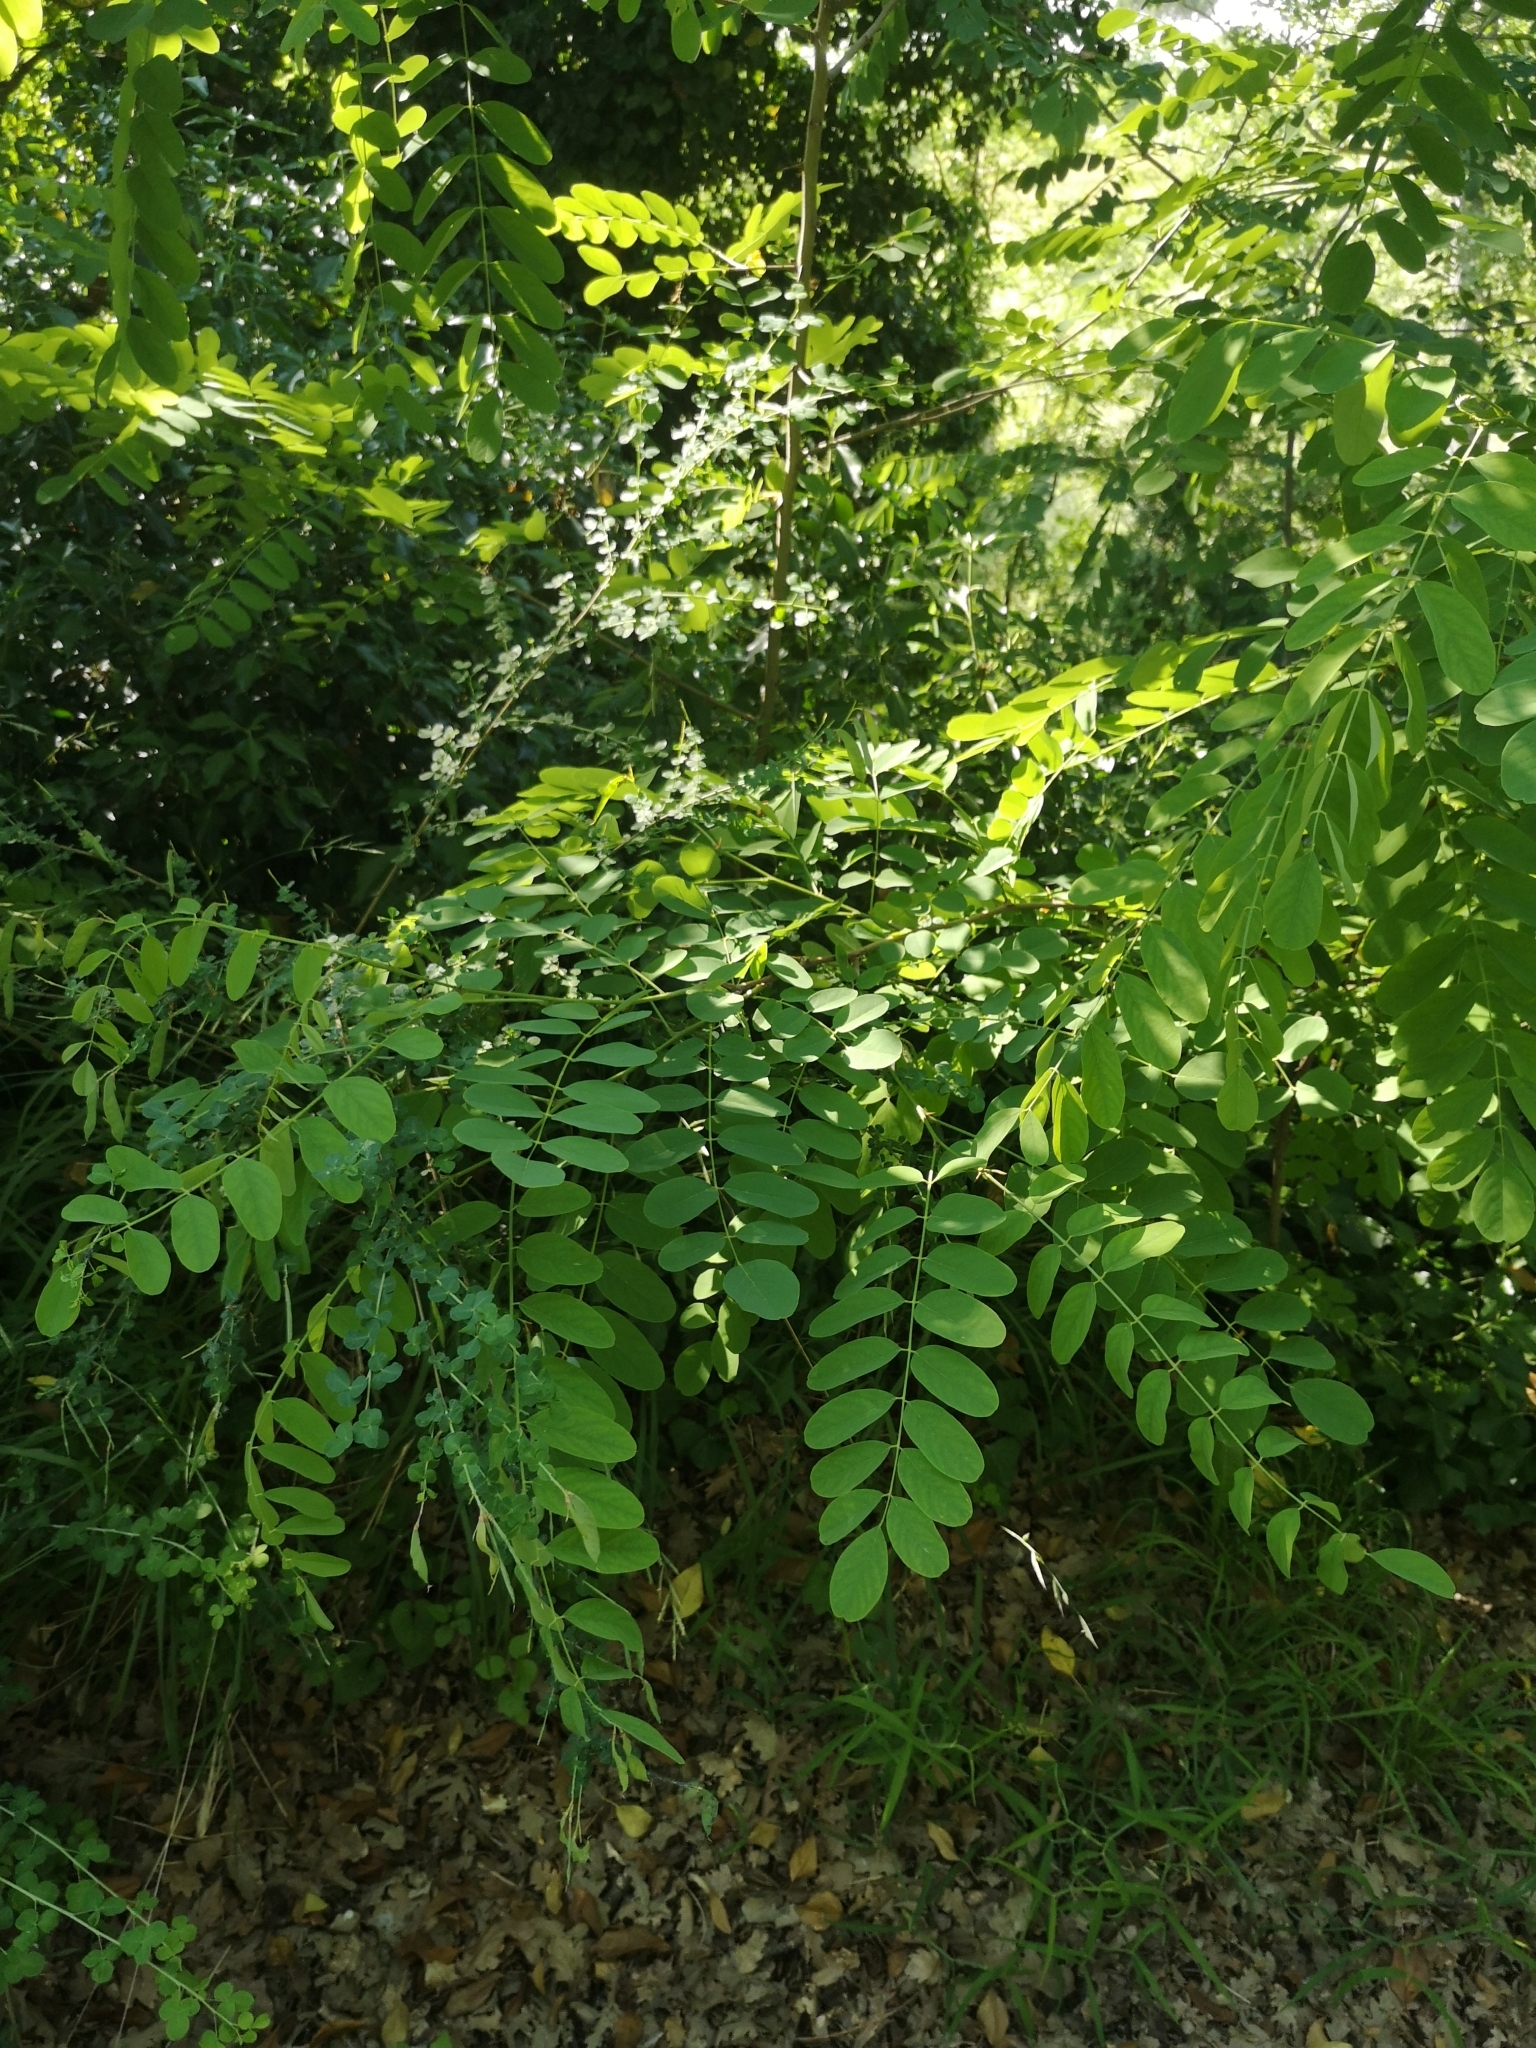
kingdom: Plantae
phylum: Tracheophyta
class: Magnoliopsida
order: Fabales
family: Fabaceae
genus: Robinia
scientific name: Robinia pseudoacacia
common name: Black locust
